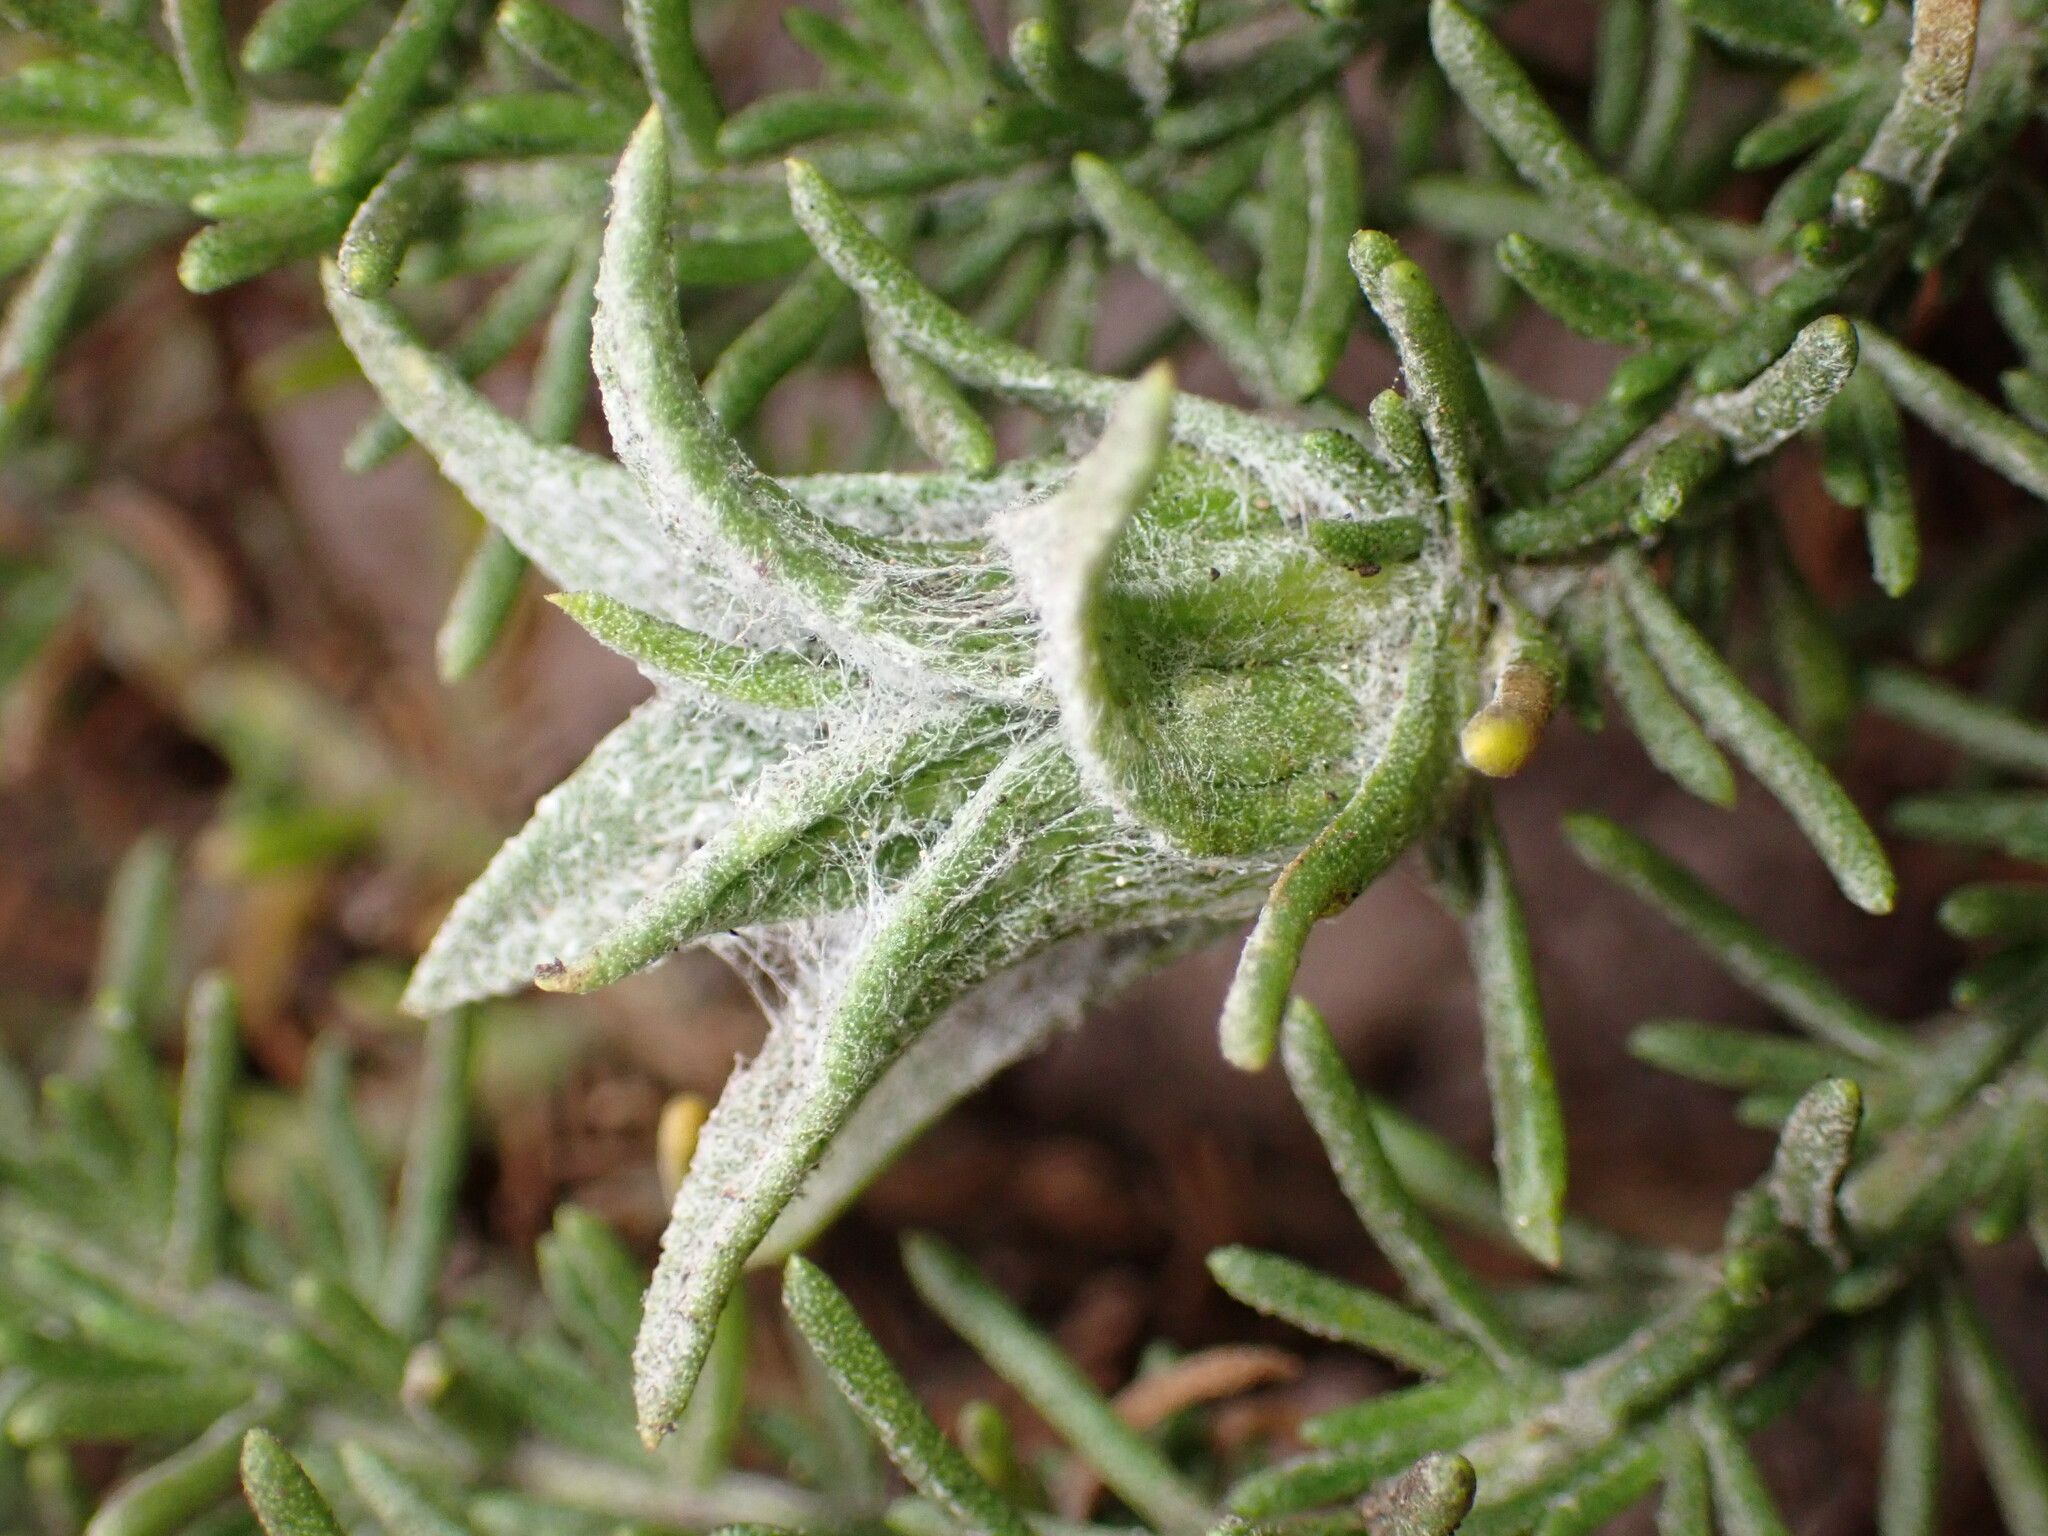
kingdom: Animalia
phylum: Arthropoda
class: Insecta
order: Diptera
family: Cecidomyiidae
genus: Prodiplosis
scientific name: Prodiplosis falcata
